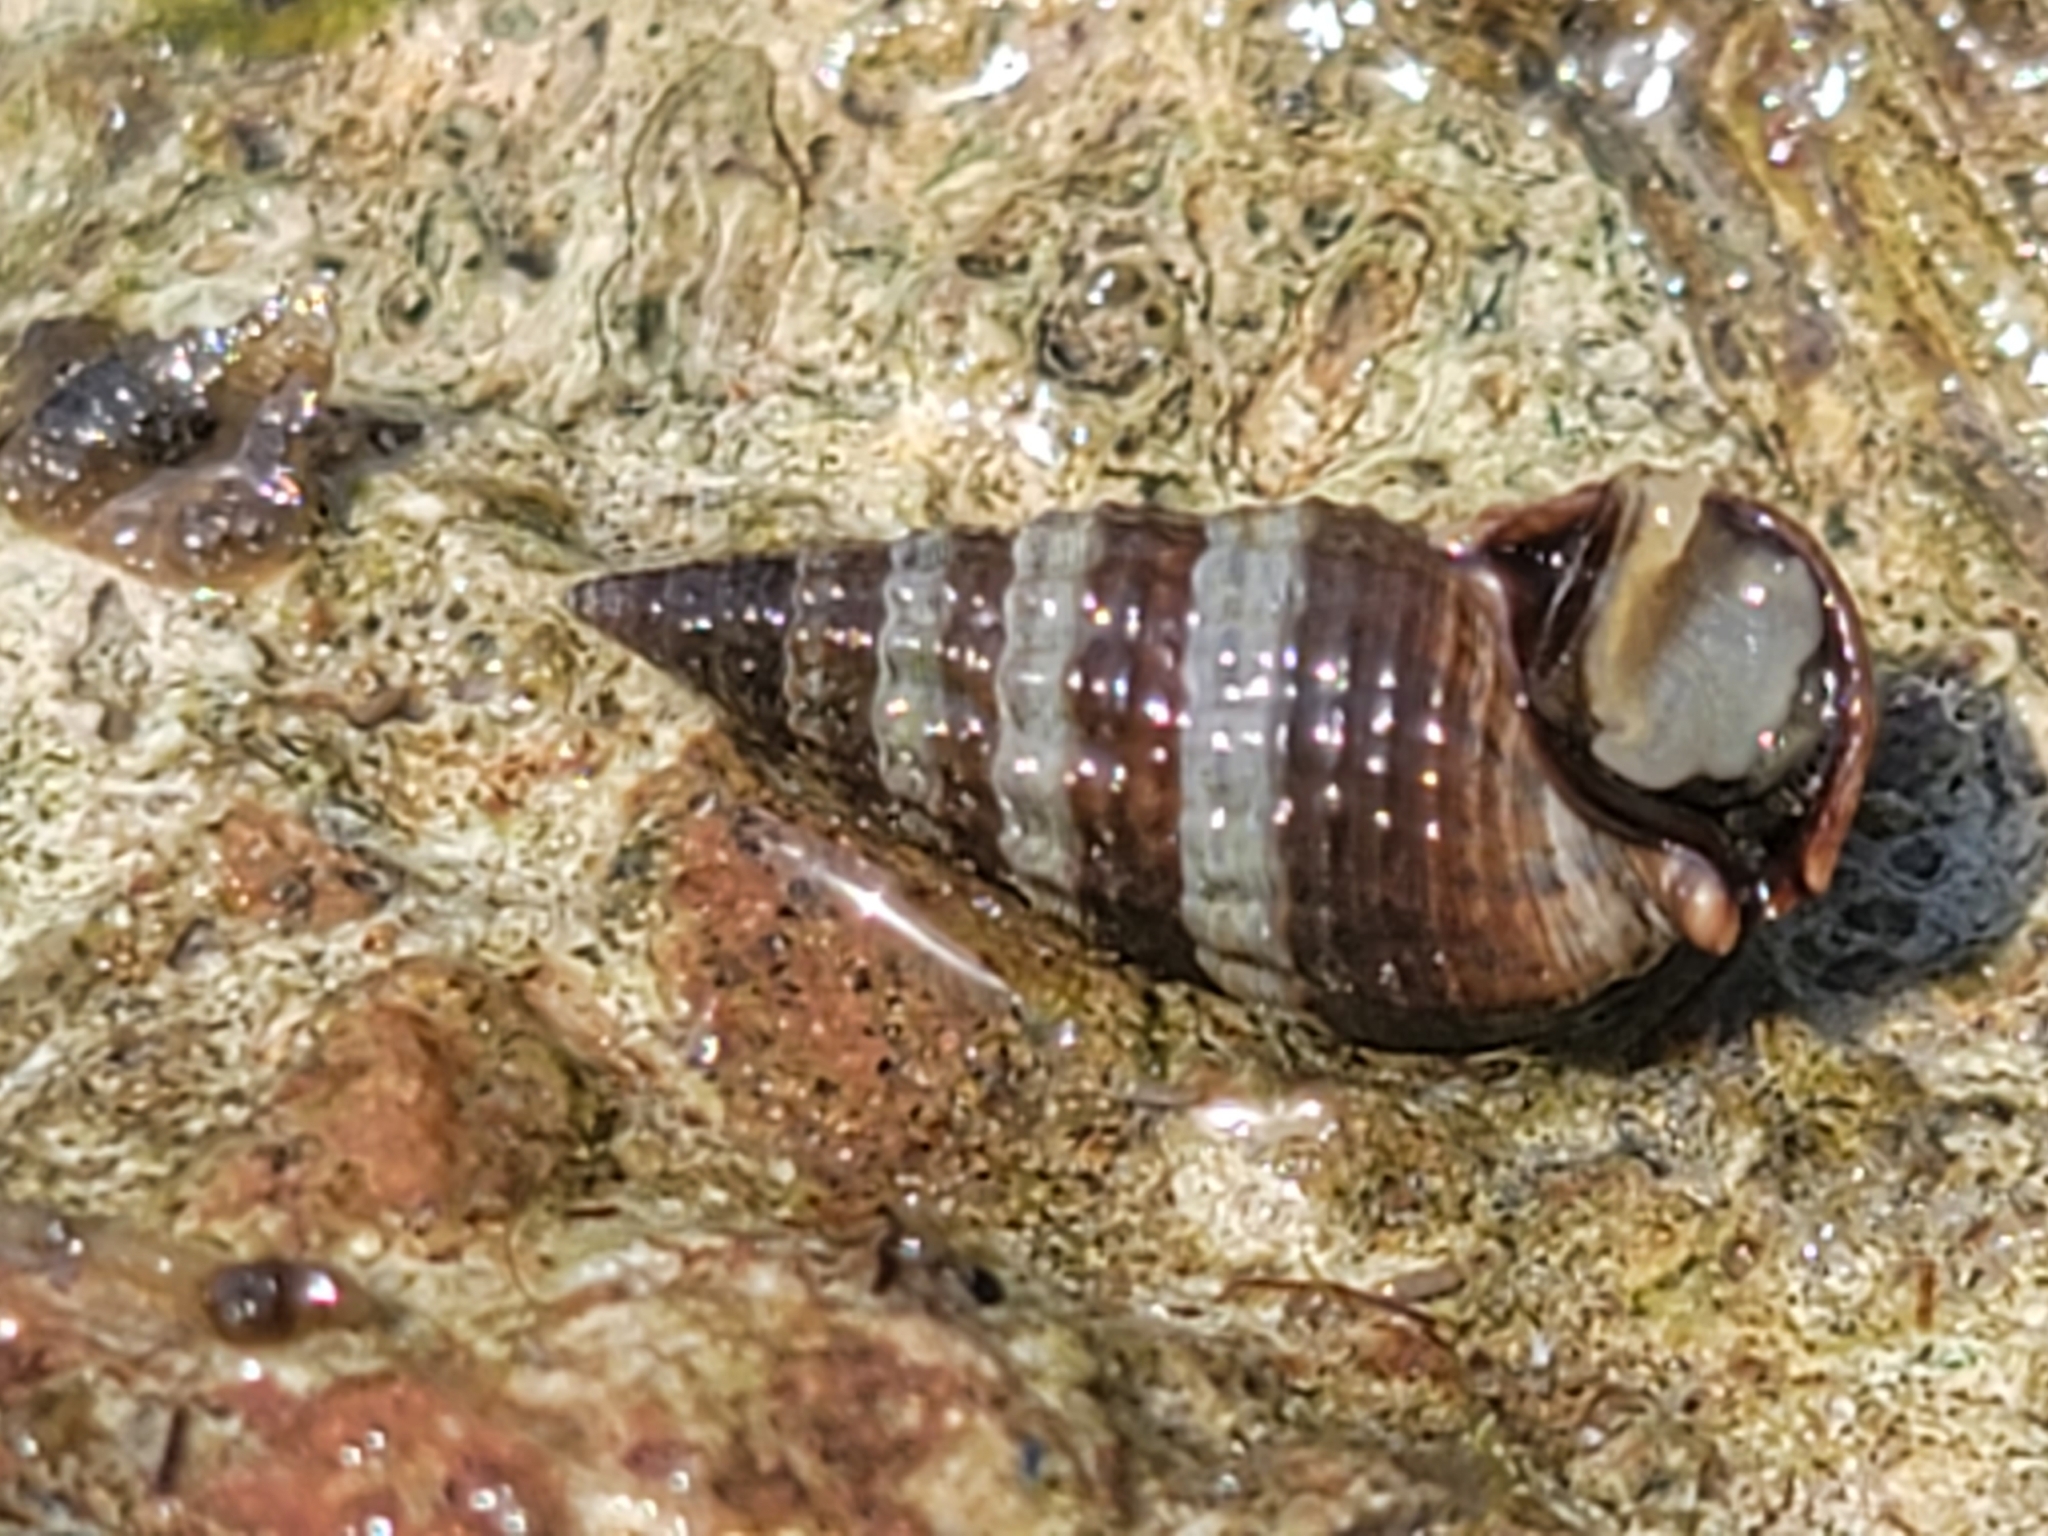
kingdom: Animalia
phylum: Mollusca
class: Gastropoda
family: Batillariidae
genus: Lampanella
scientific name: Lampanella minima
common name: West indian false cerith
